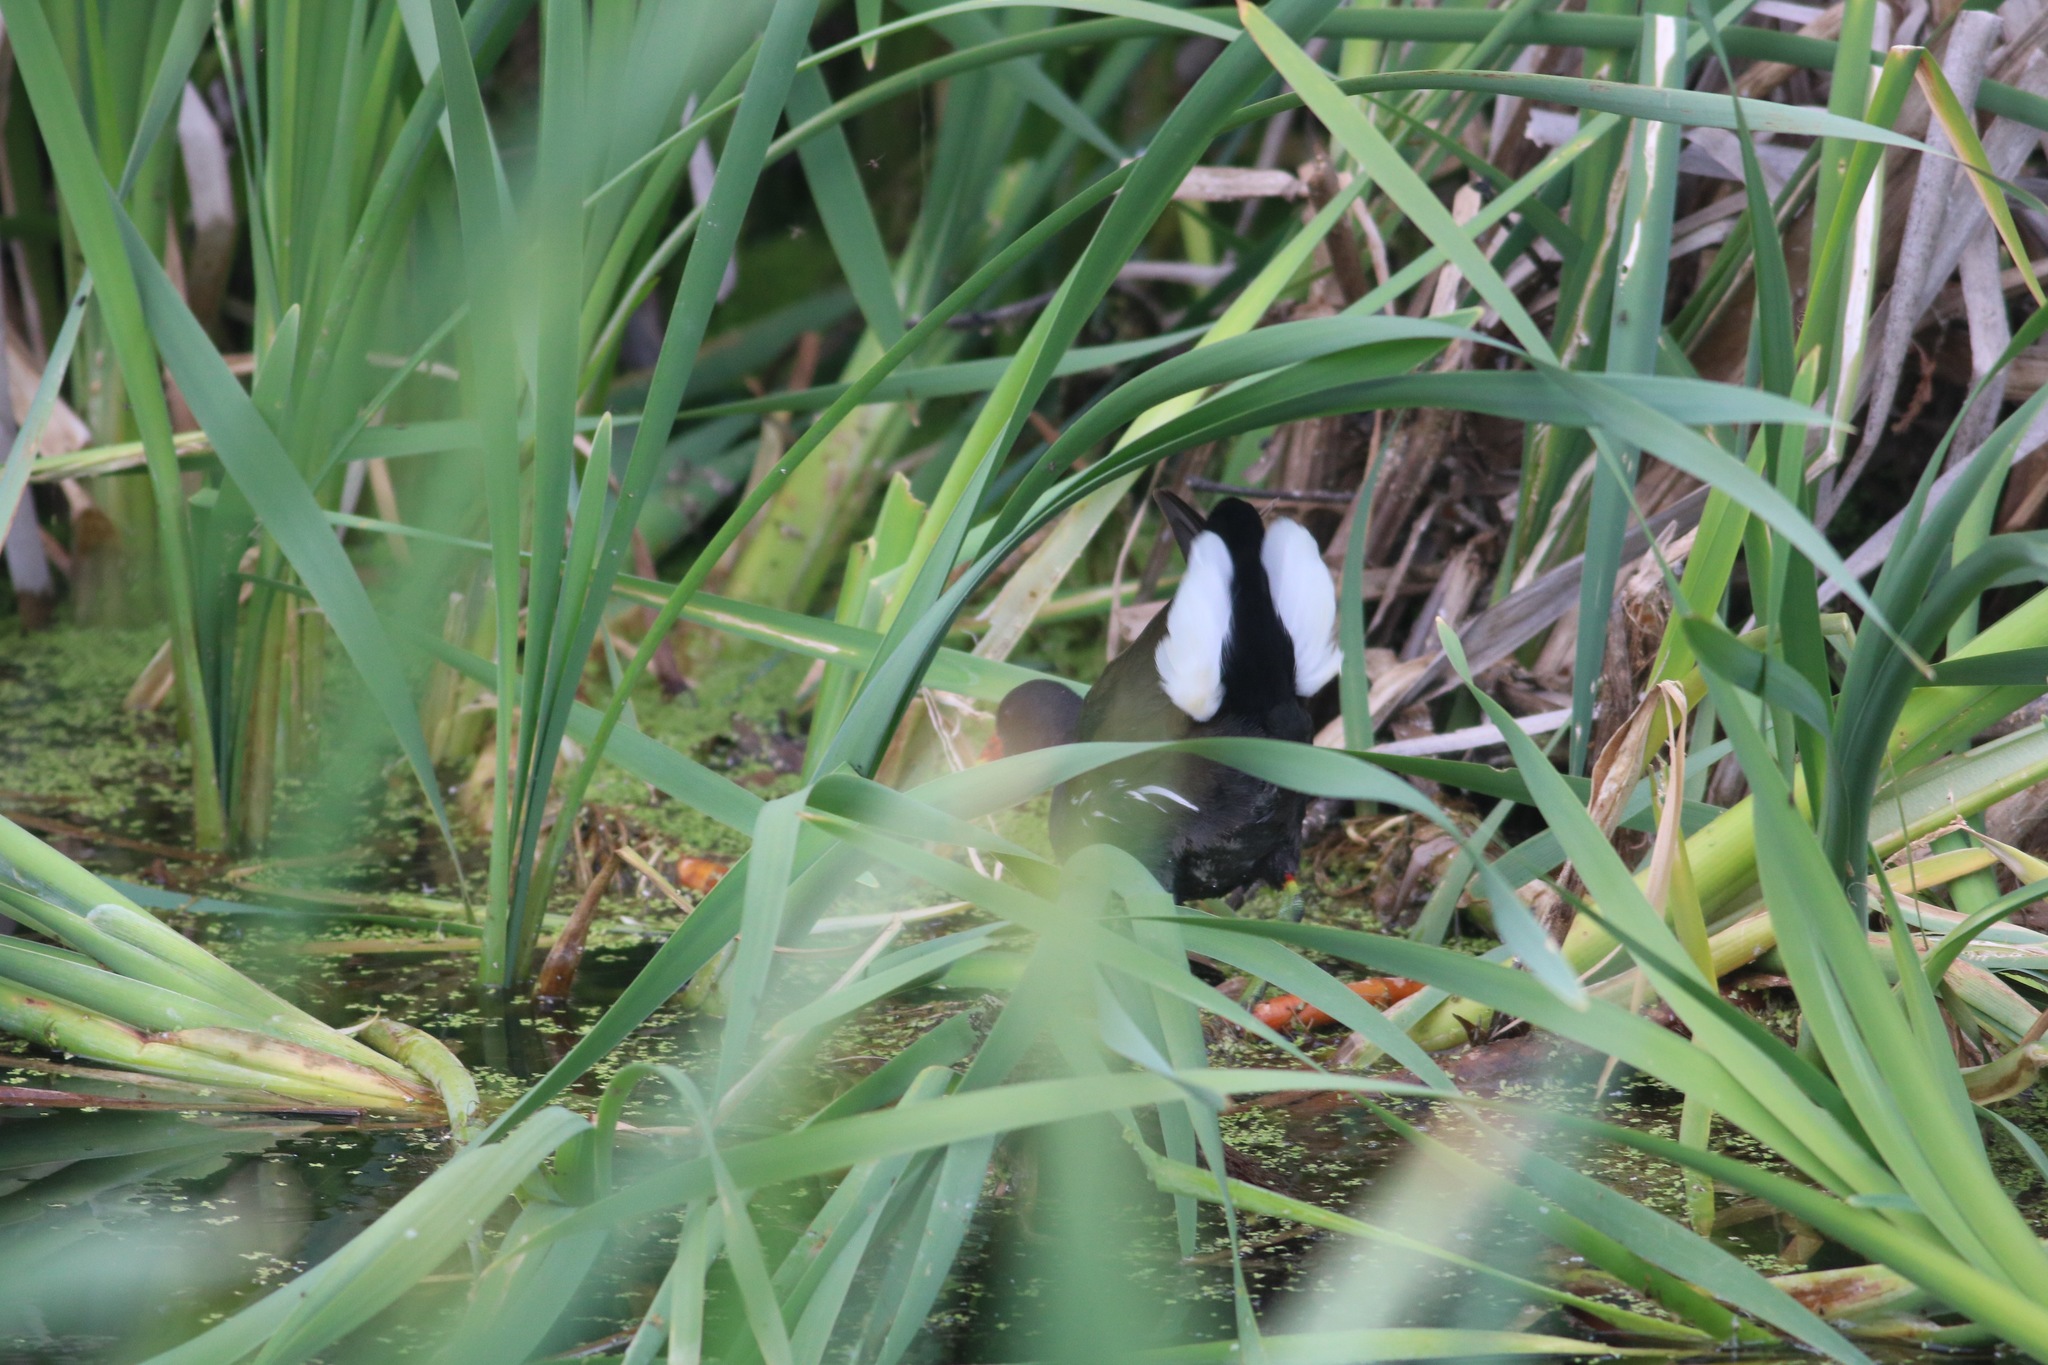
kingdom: Animalia
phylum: Chordata
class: Aves
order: Gruiformes
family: Rallidae
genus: Gallinula
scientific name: Gallinula chloropus
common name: Common moorhen
